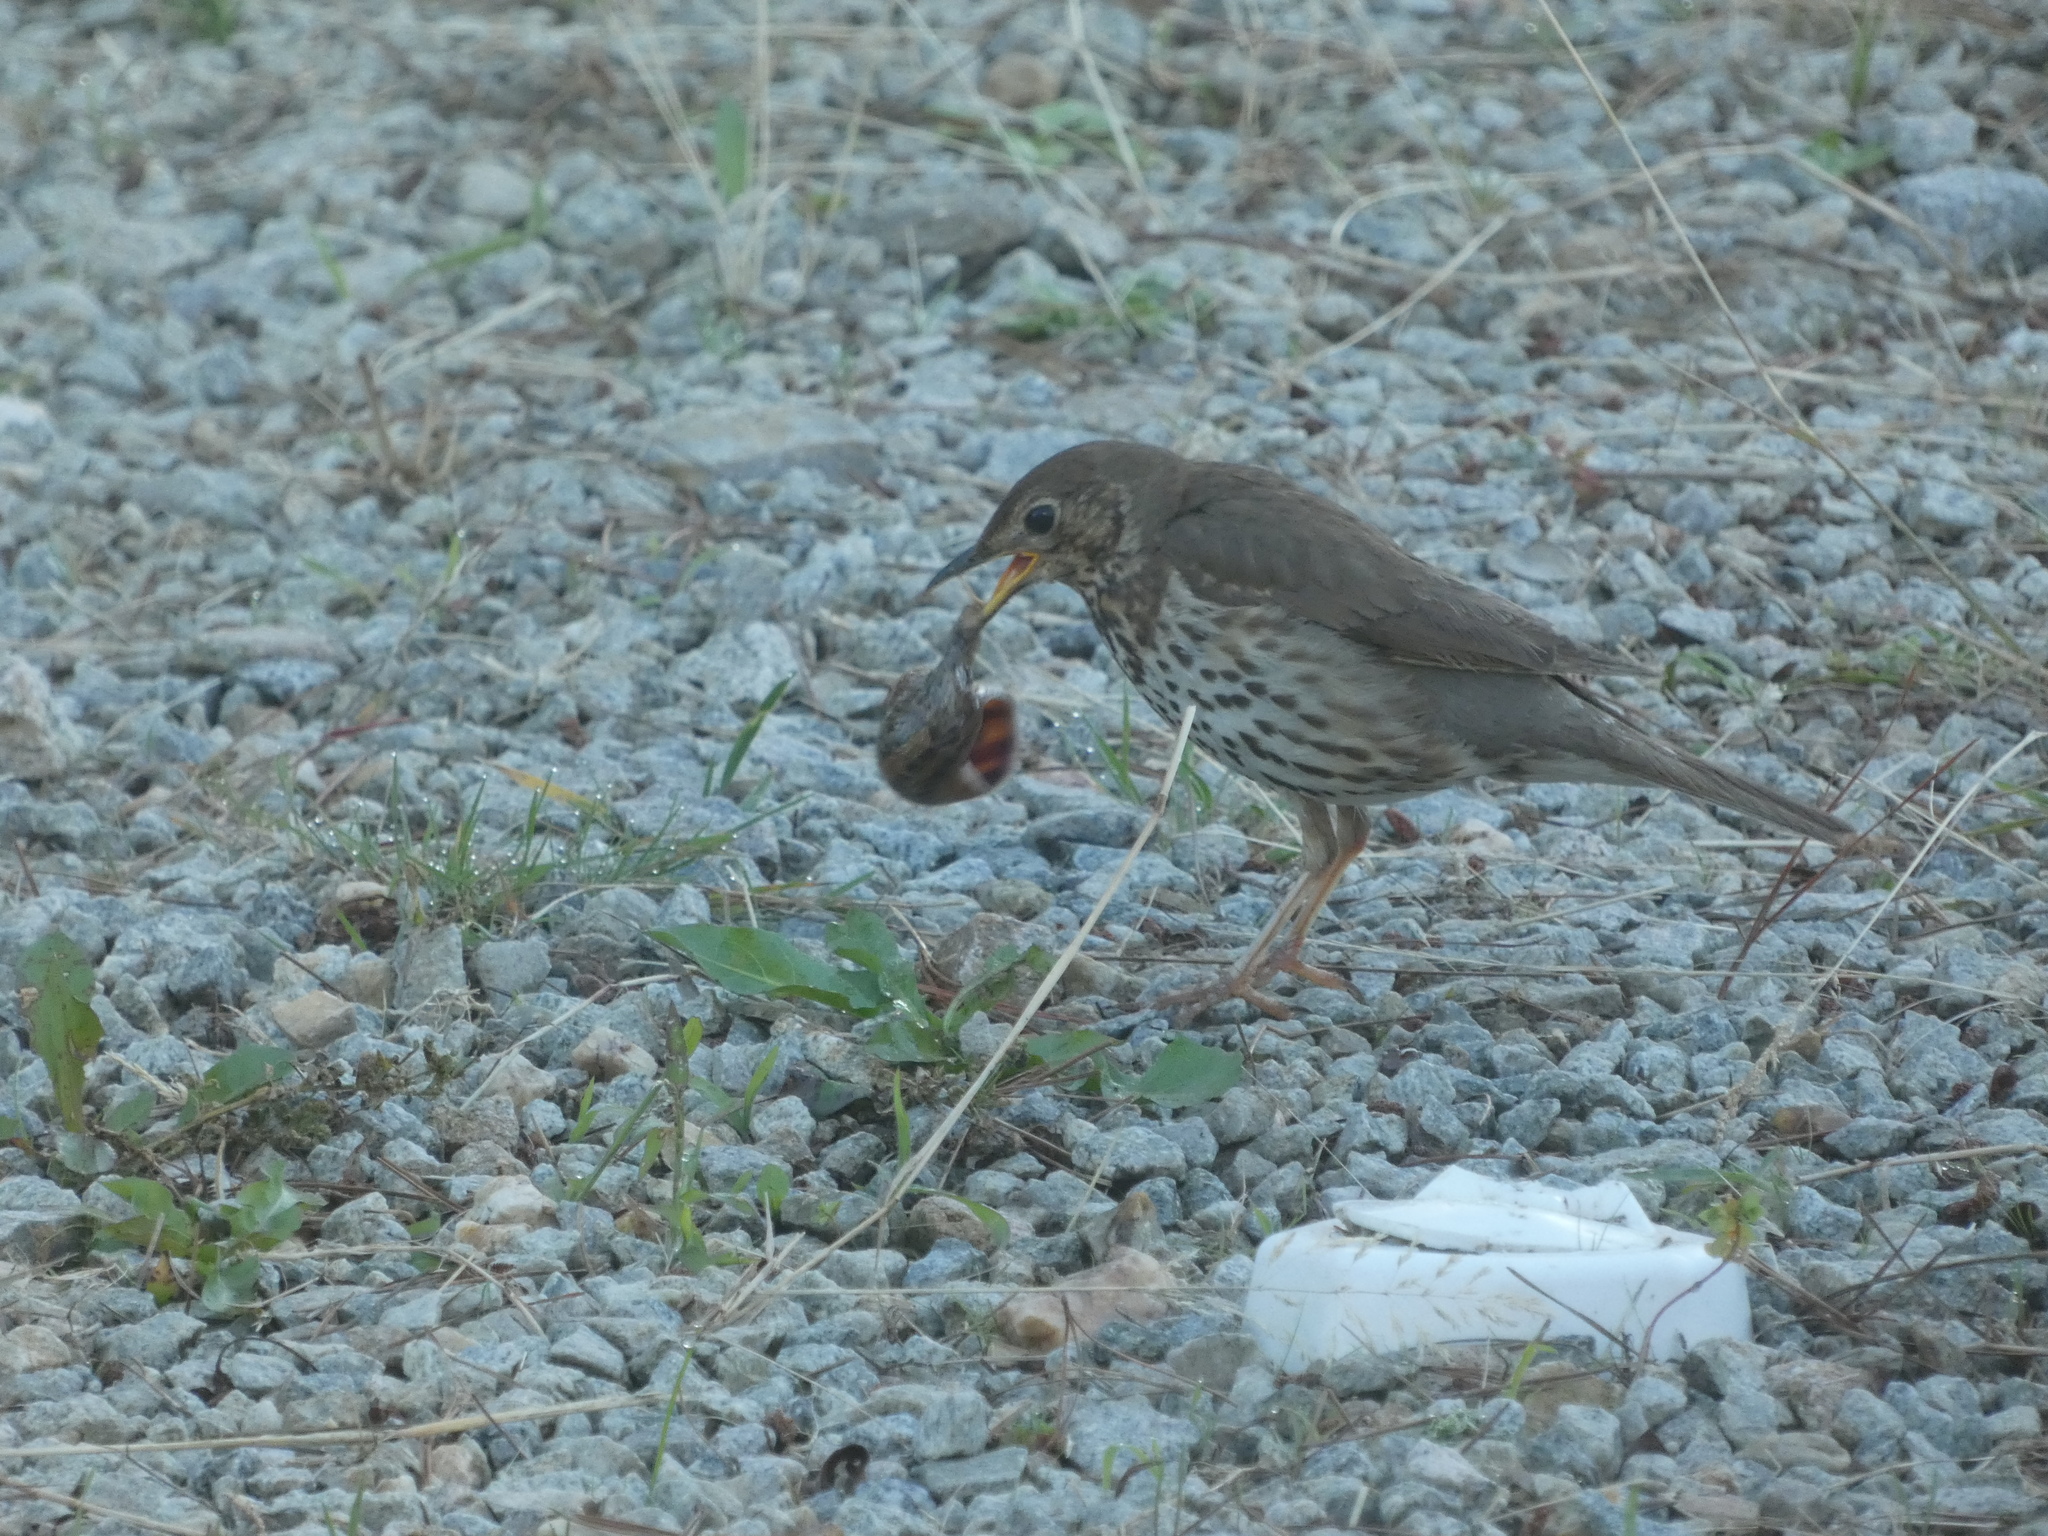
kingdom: Animalia
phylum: Chordata
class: Aves
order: Passeriformes
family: Turdidae
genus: Turdus
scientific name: Turdus philomelos
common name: Song thrush
